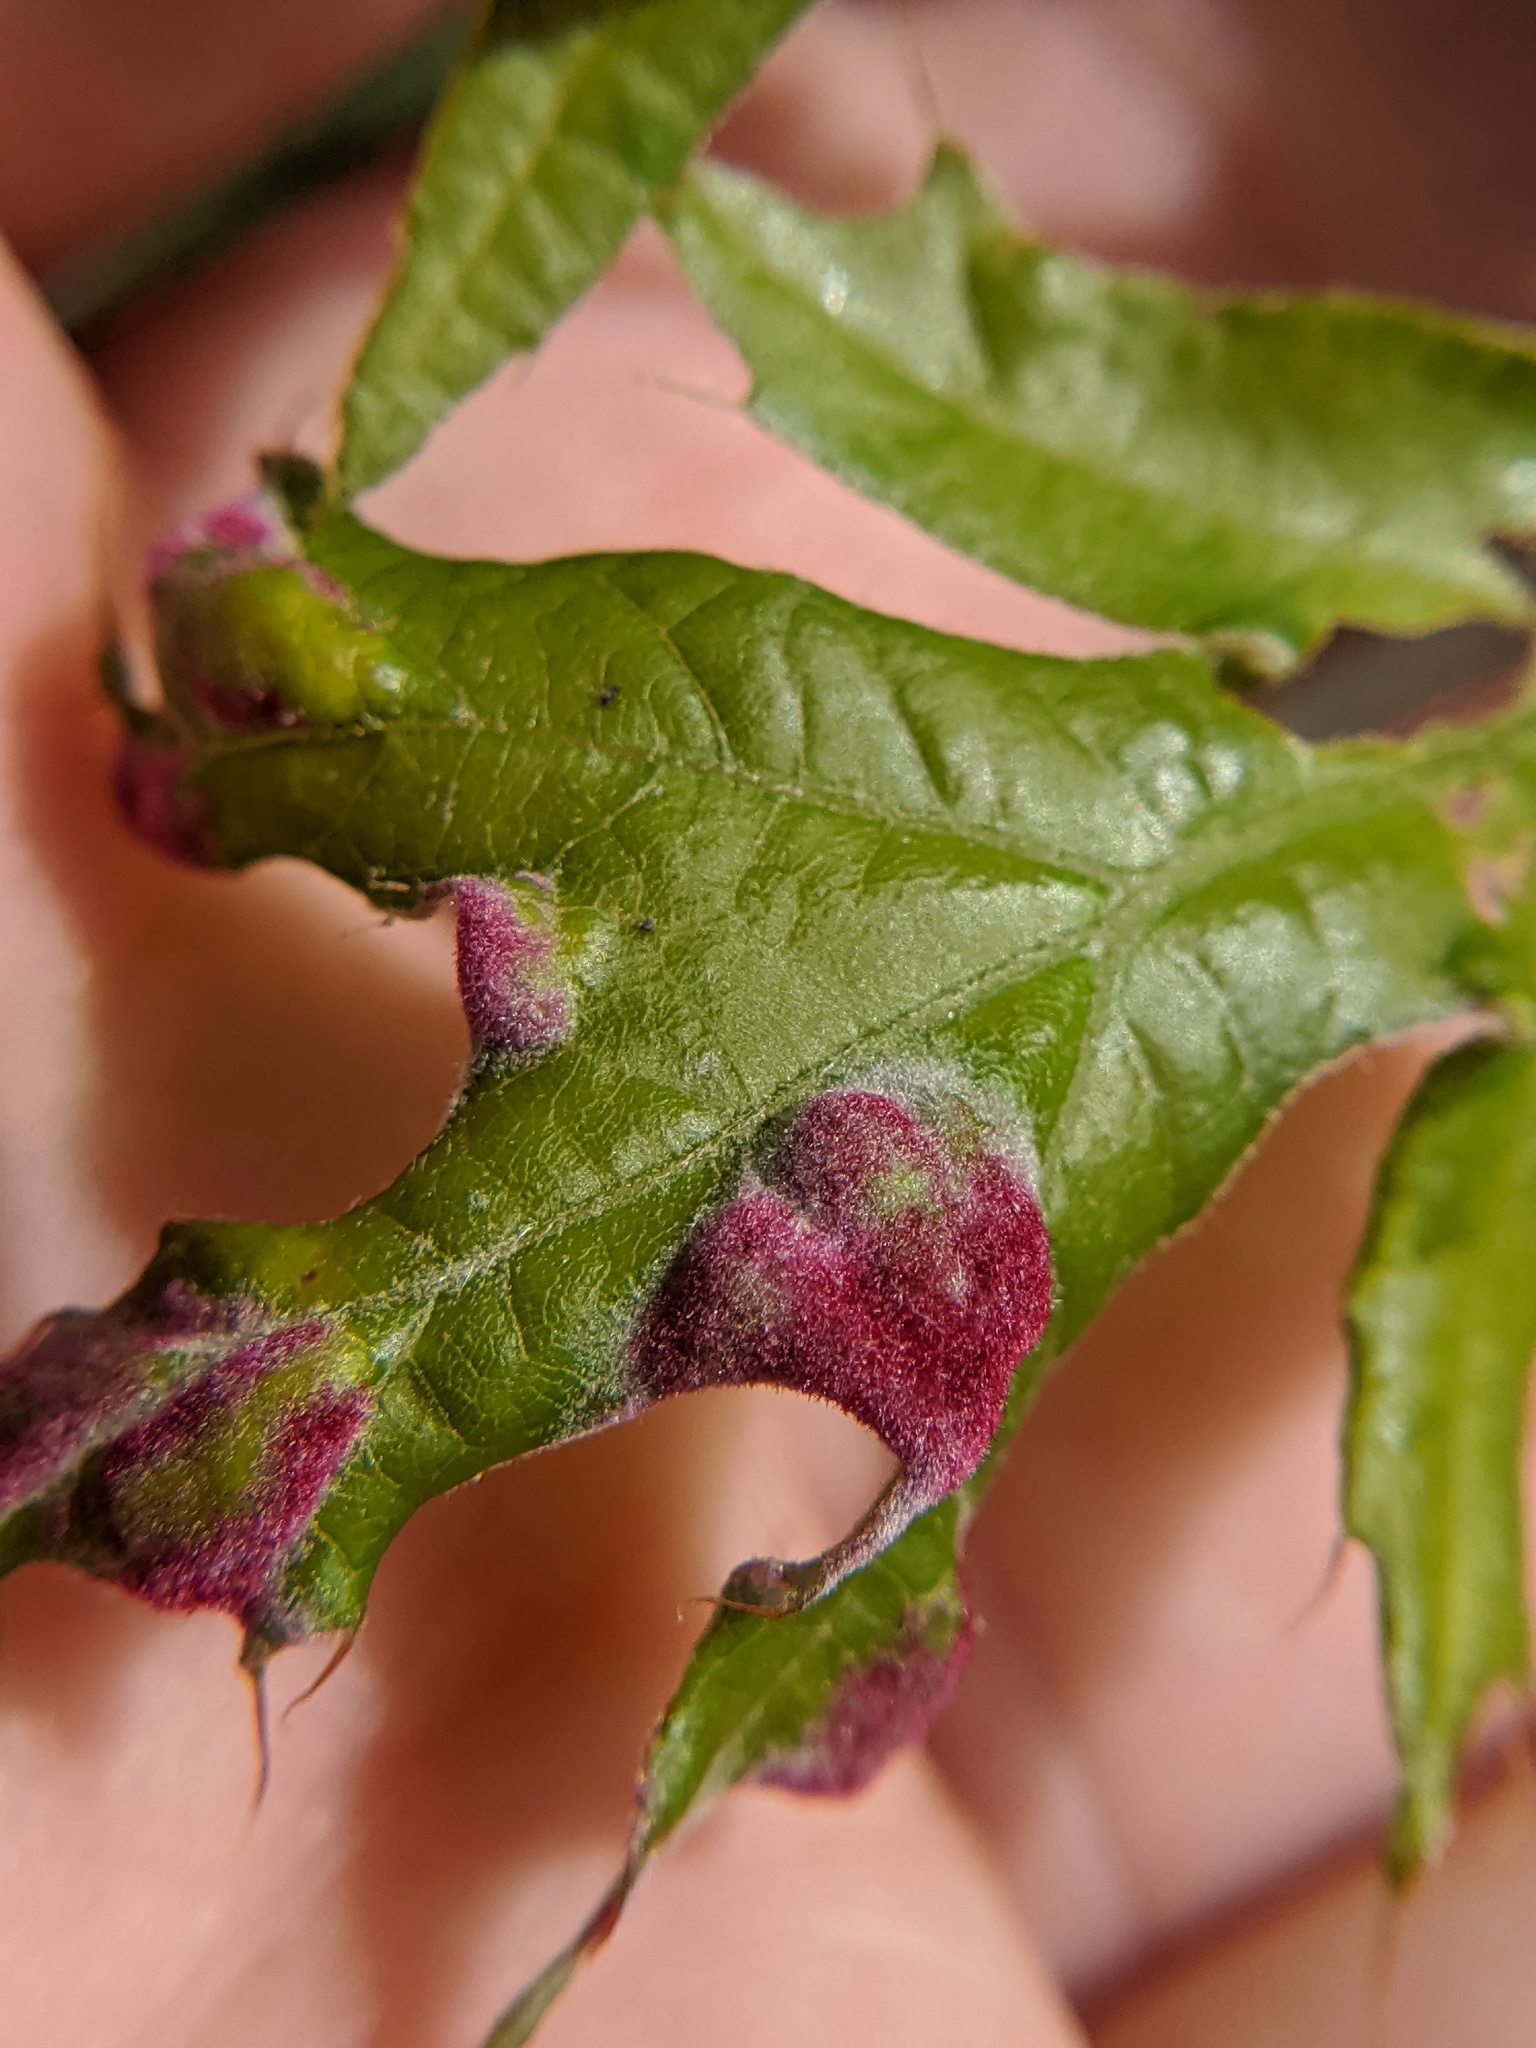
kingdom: Animalia
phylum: Arthropoda
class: Arachnida
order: Trombidiformes
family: Eriophyidae
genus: Aceria
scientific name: Aceria
